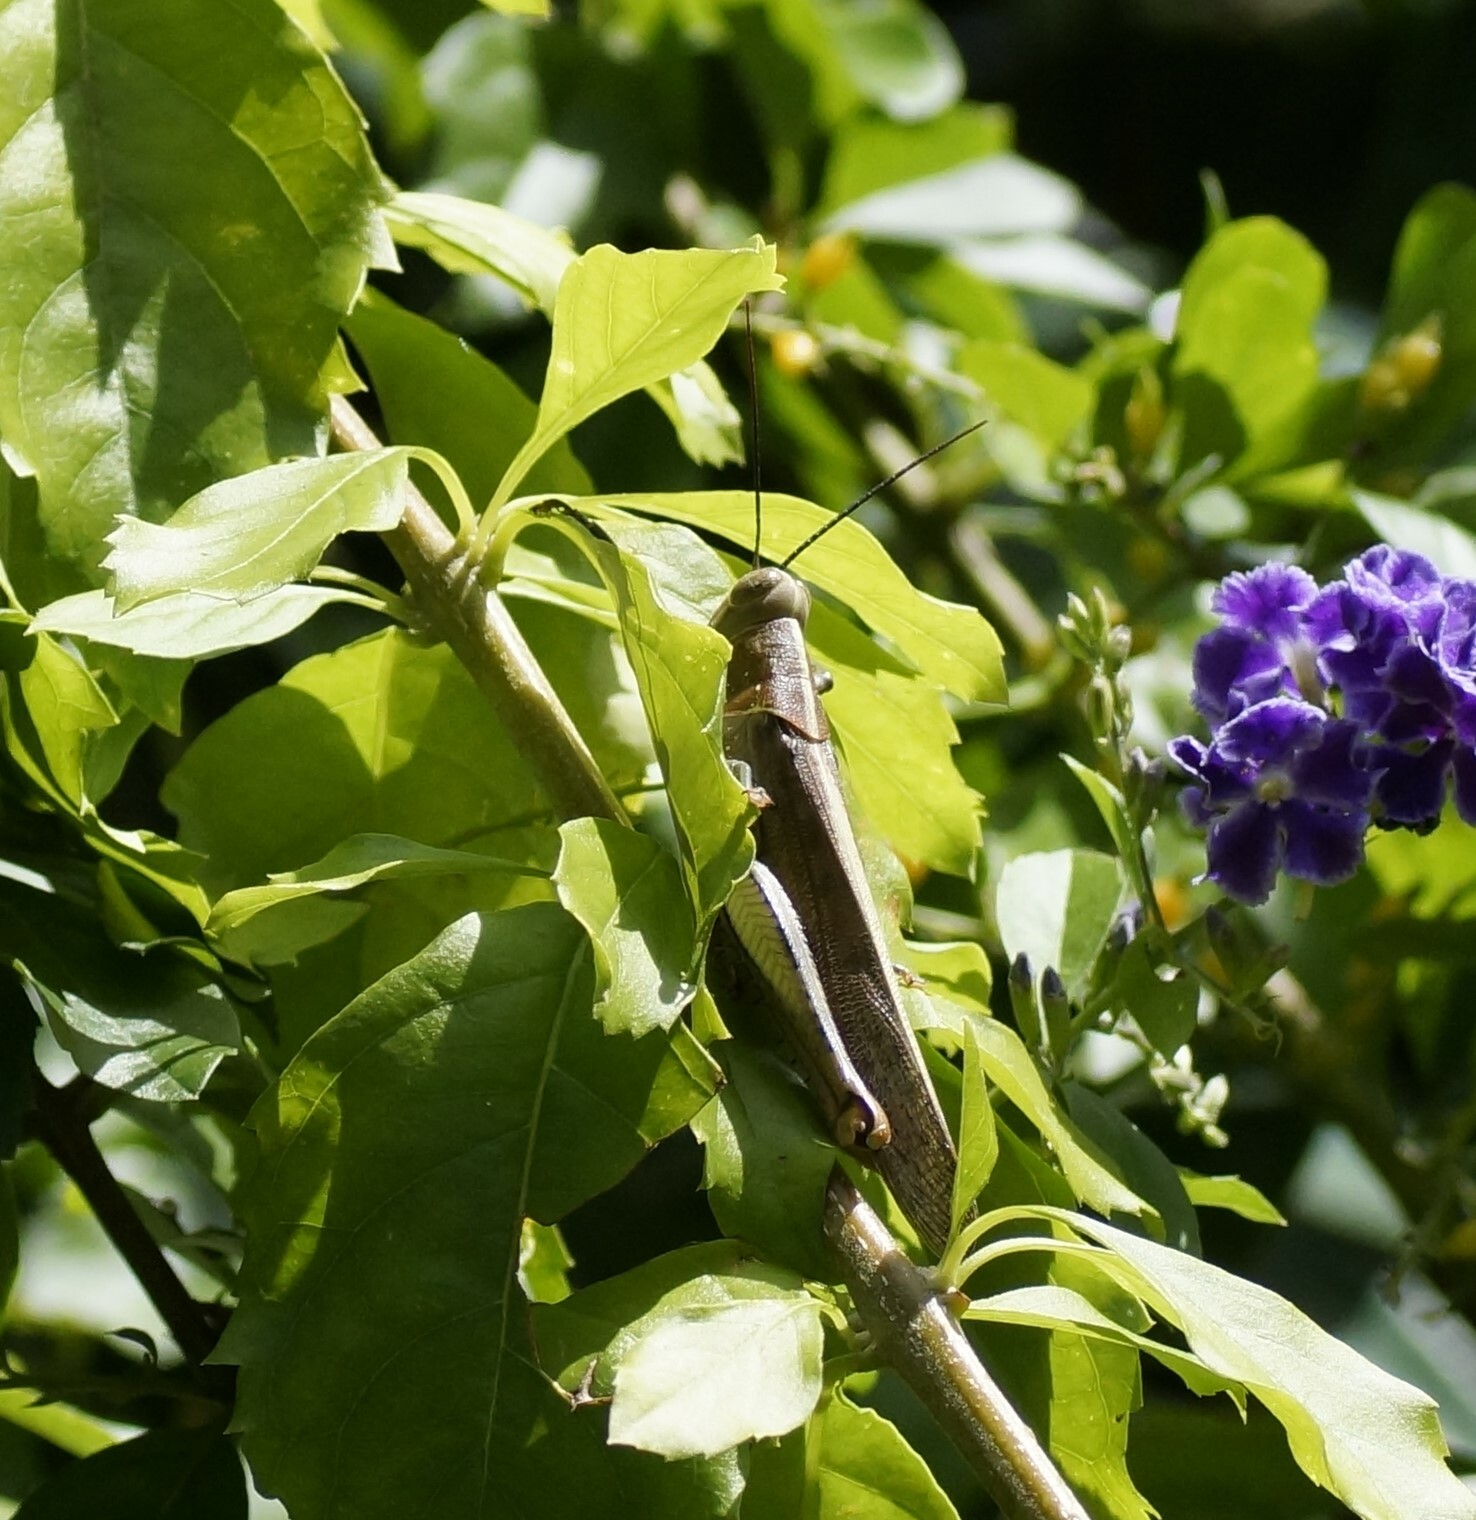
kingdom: Animalia
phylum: Arthropoda
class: Insecta
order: Orthoptera
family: Acrididae
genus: Valanga
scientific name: Valanga irregularis
